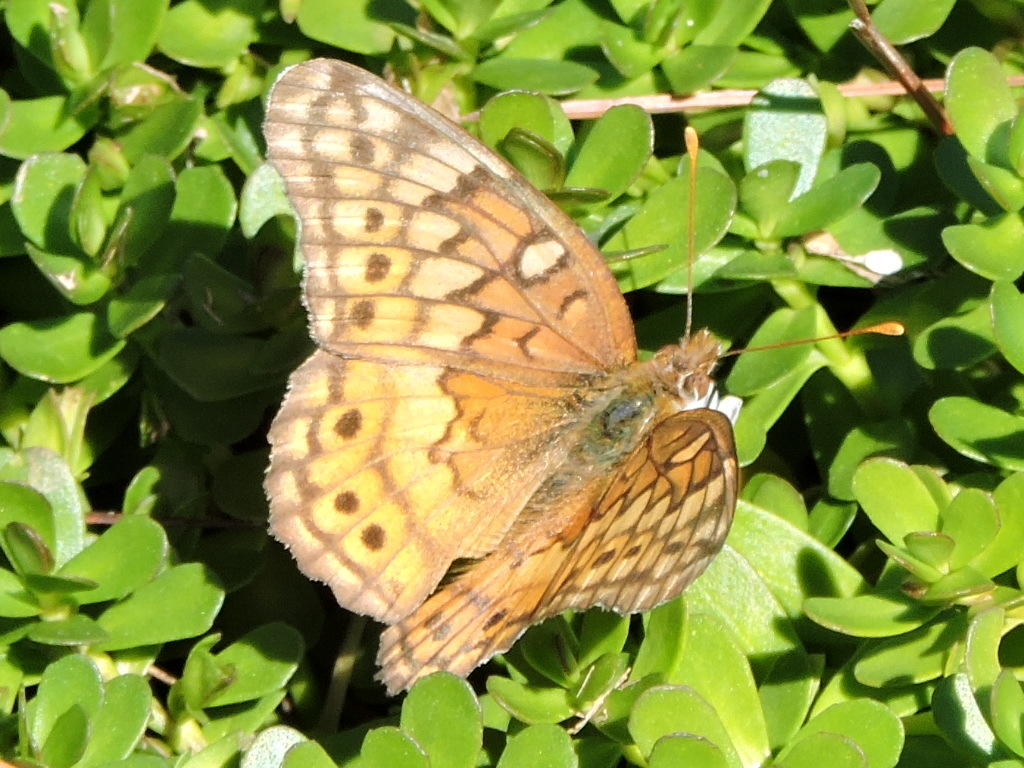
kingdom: Animalia
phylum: Arthropoda
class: Insecta
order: Lepidoptera
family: Nymphalidae
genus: Euptoieta
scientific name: Euptoieta claudia
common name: Variegated fritillary
